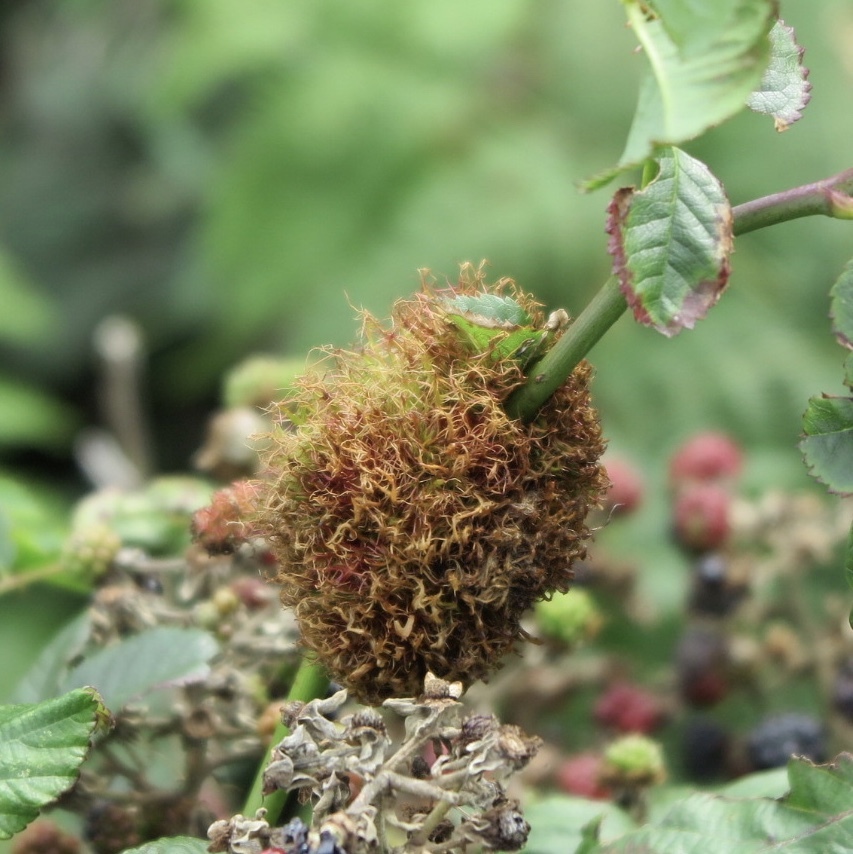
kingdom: Animalia
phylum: Arthropoda
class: Insecta
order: Hymenoptera
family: Cynipidae
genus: Diplolepis
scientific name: Diplolepis rosae
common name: Bedeguar gall
